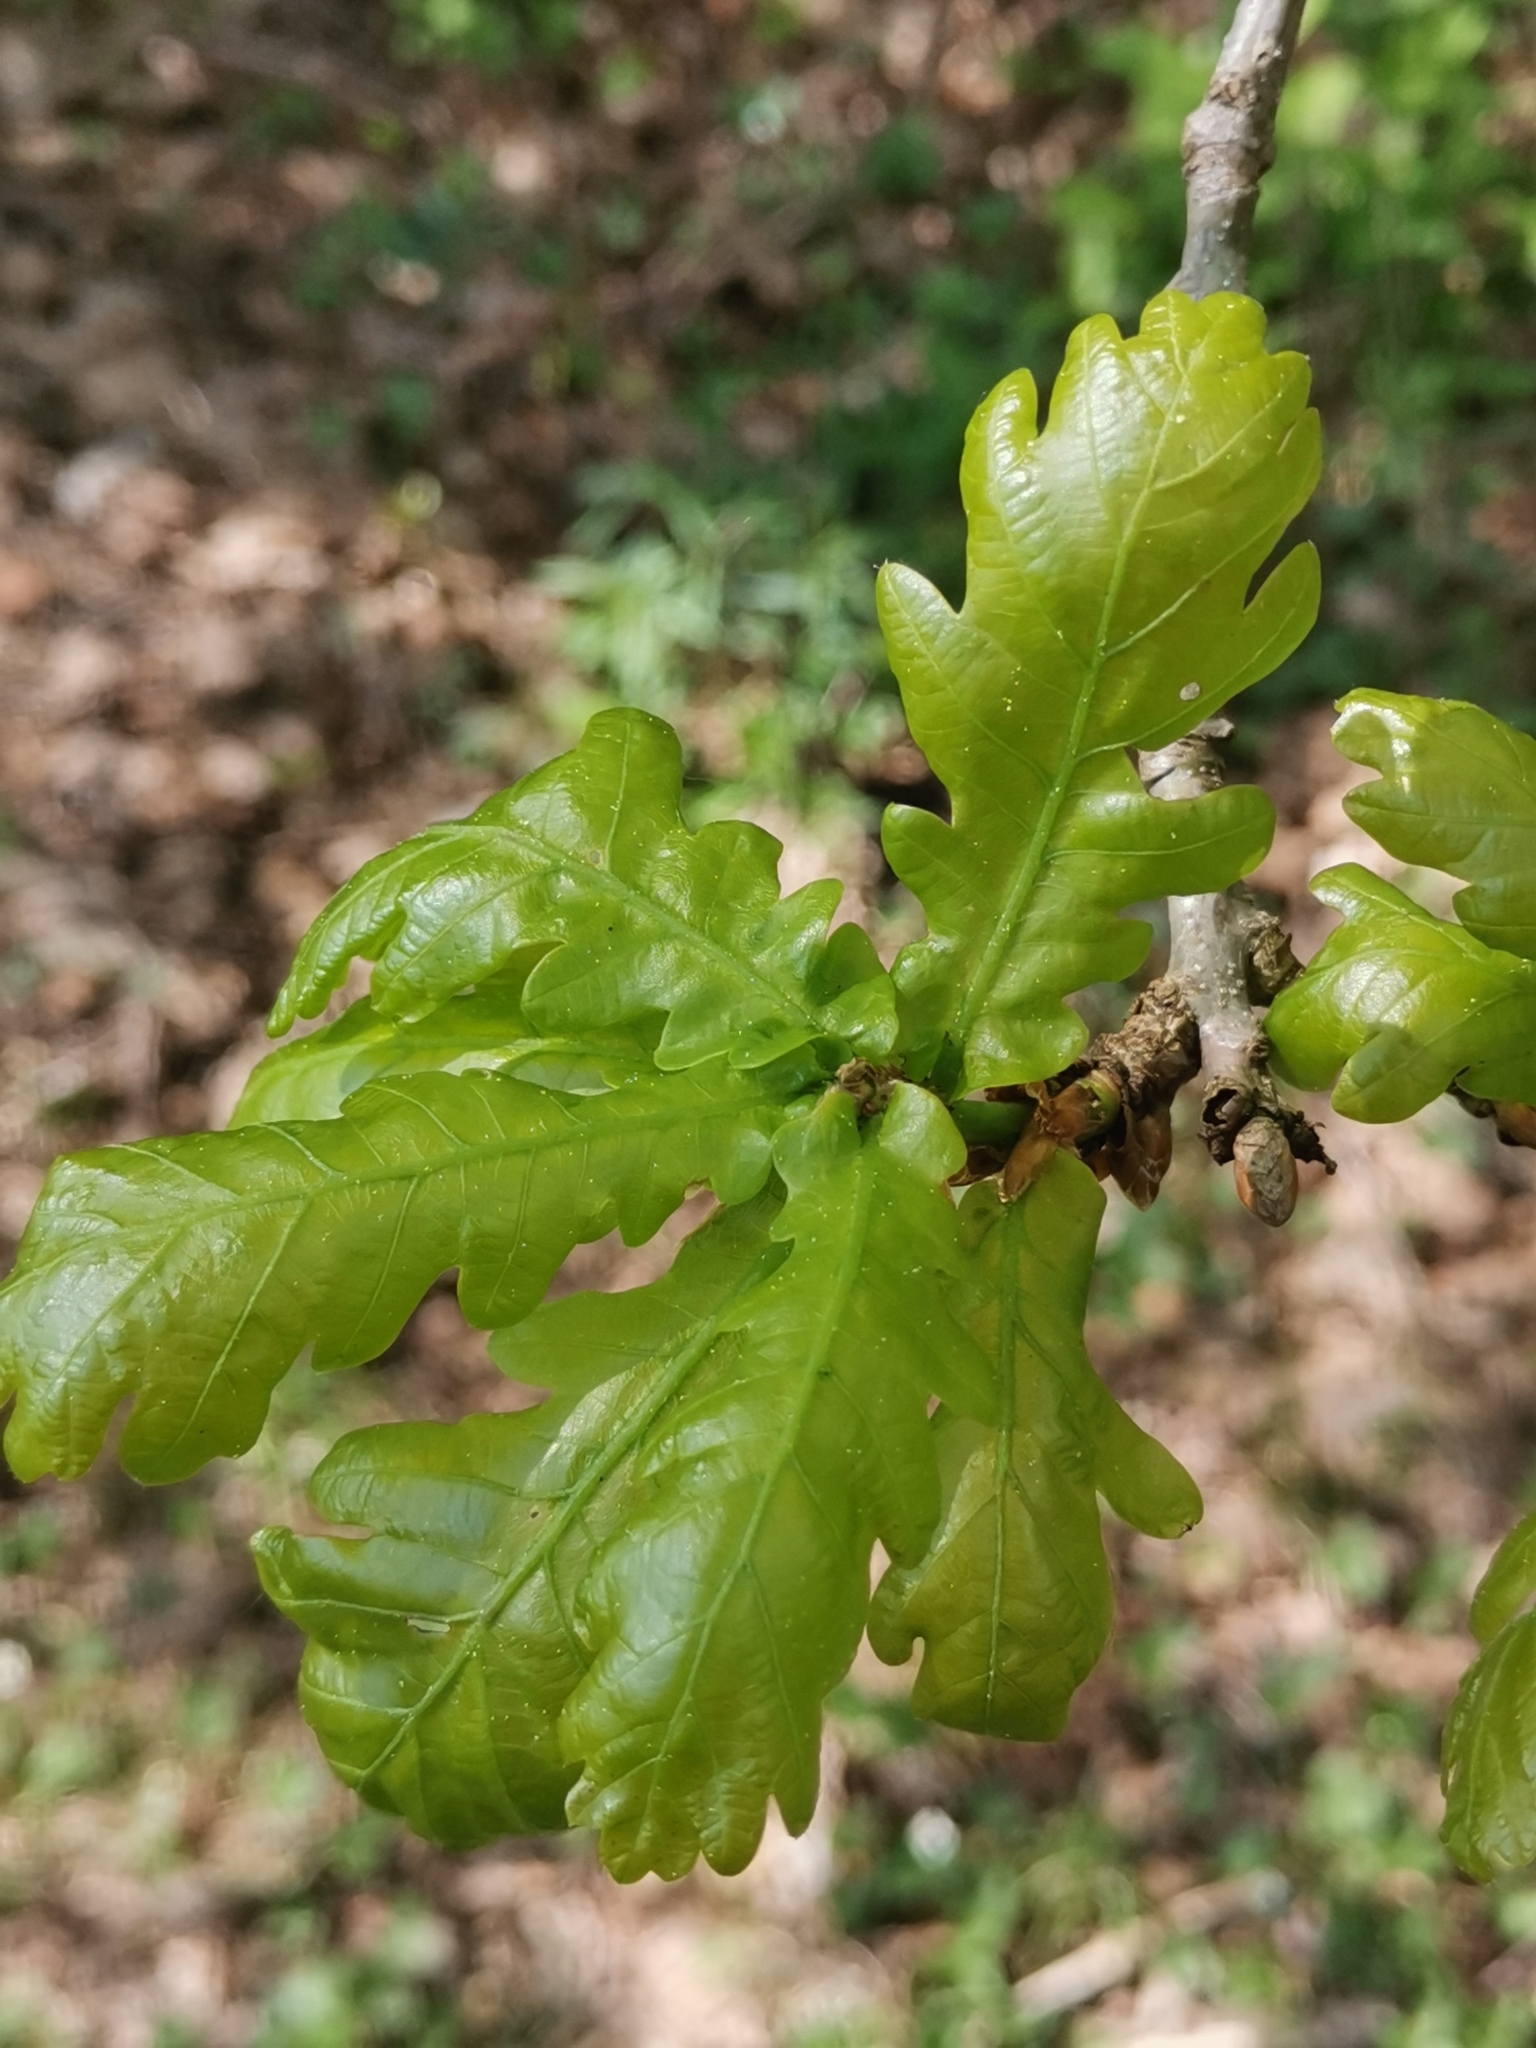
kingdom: Plantae
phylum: Tracheophyta
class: Magnoliopsida
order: Fagales
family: Fagaceae
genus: Quercus
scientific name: Quercus robur
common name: Pedunculate oak
